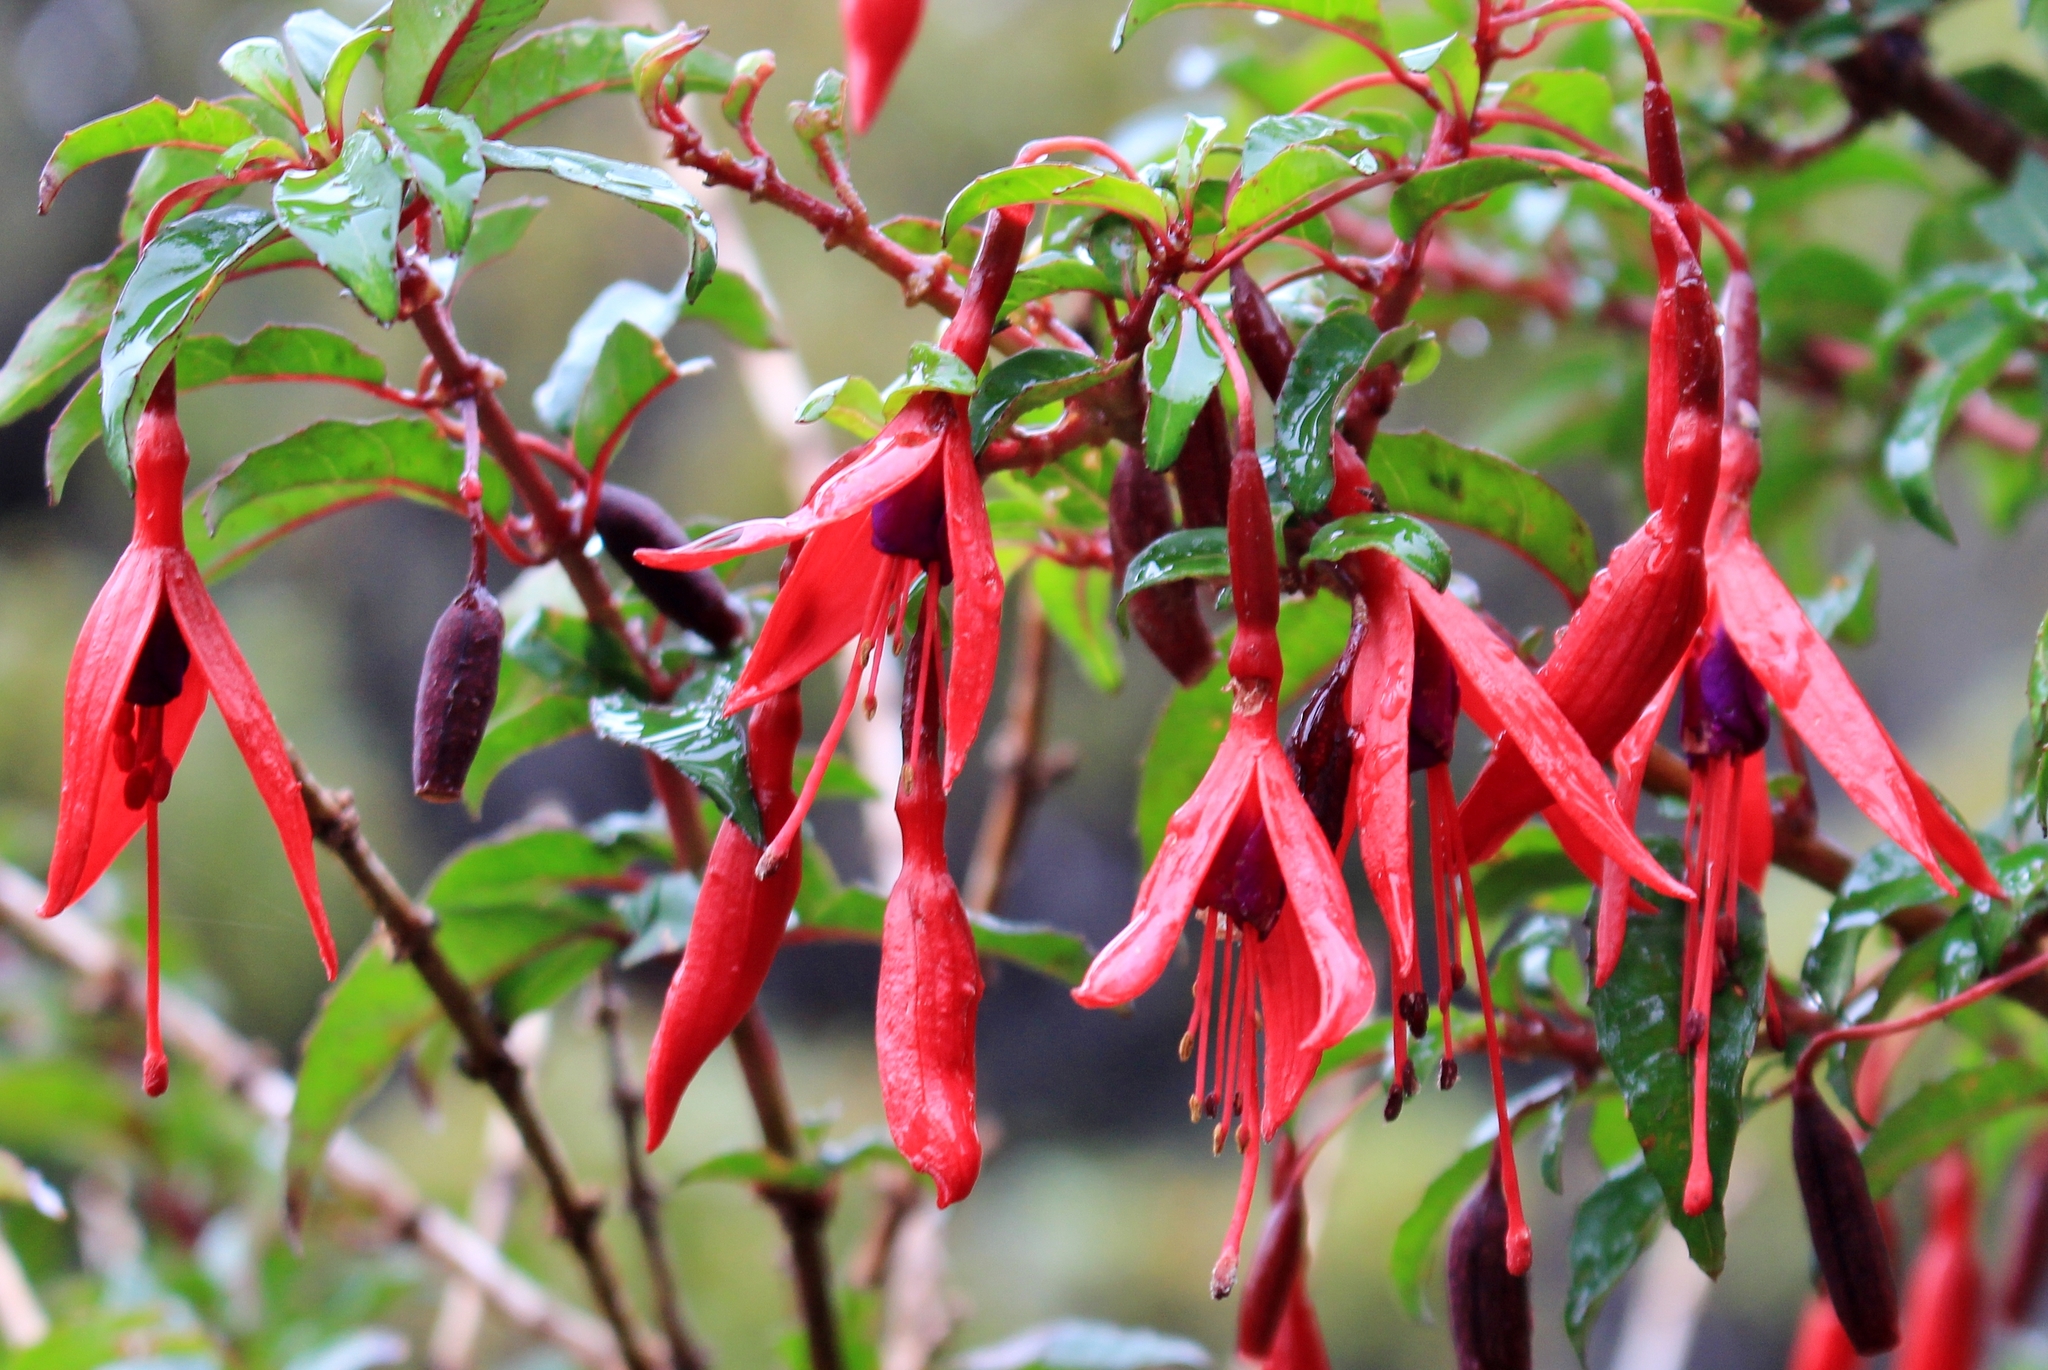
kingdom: Plantae
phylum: Tracheophyta
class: Magnoliopsida
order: Myrtales
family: Onagraceae
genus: Fuchsia
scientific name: Fuchsia magellanica
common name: Hardy fuchsia
